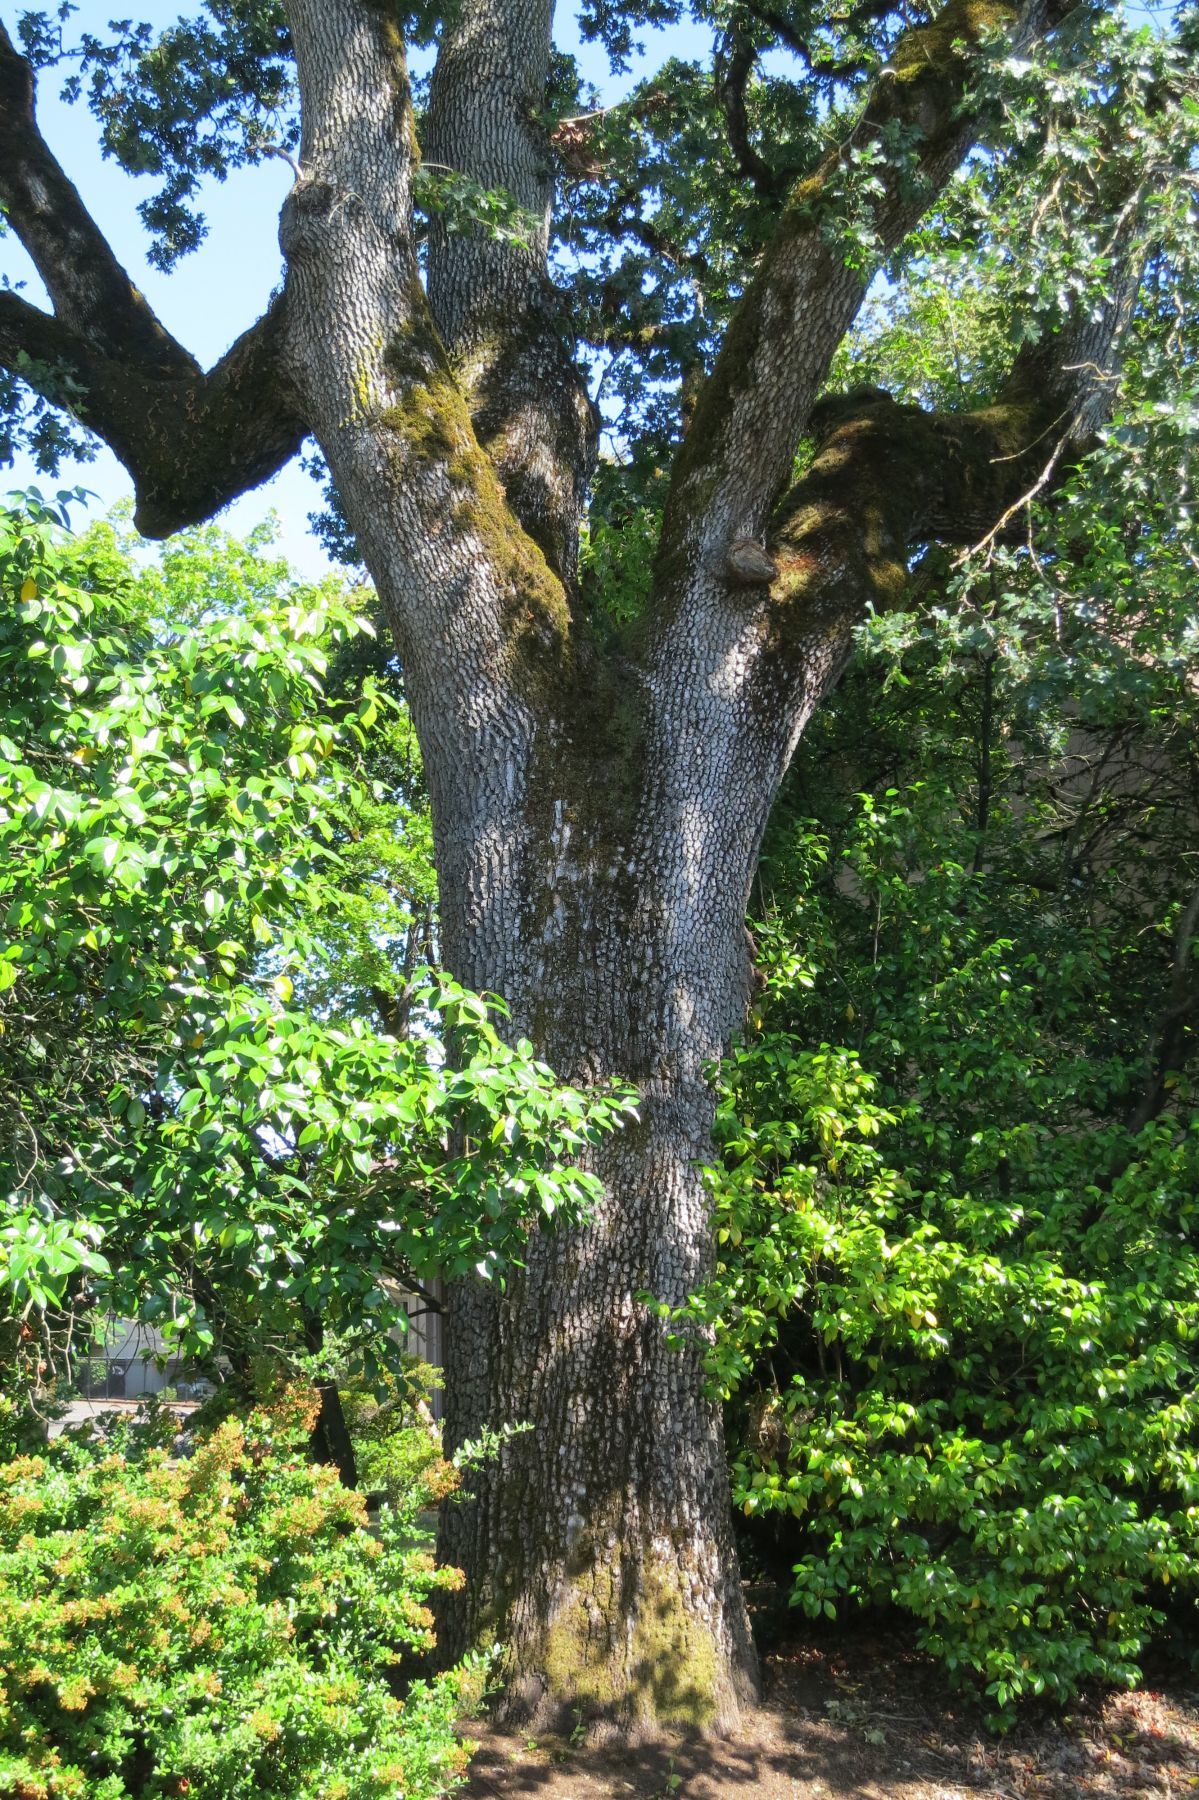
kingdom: Plantae
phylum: Tracheophyta
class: Magnoliopsida
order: Fagales
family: Fagaceae
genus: Quercus
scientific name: Quercus garryana
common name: Garry oak
